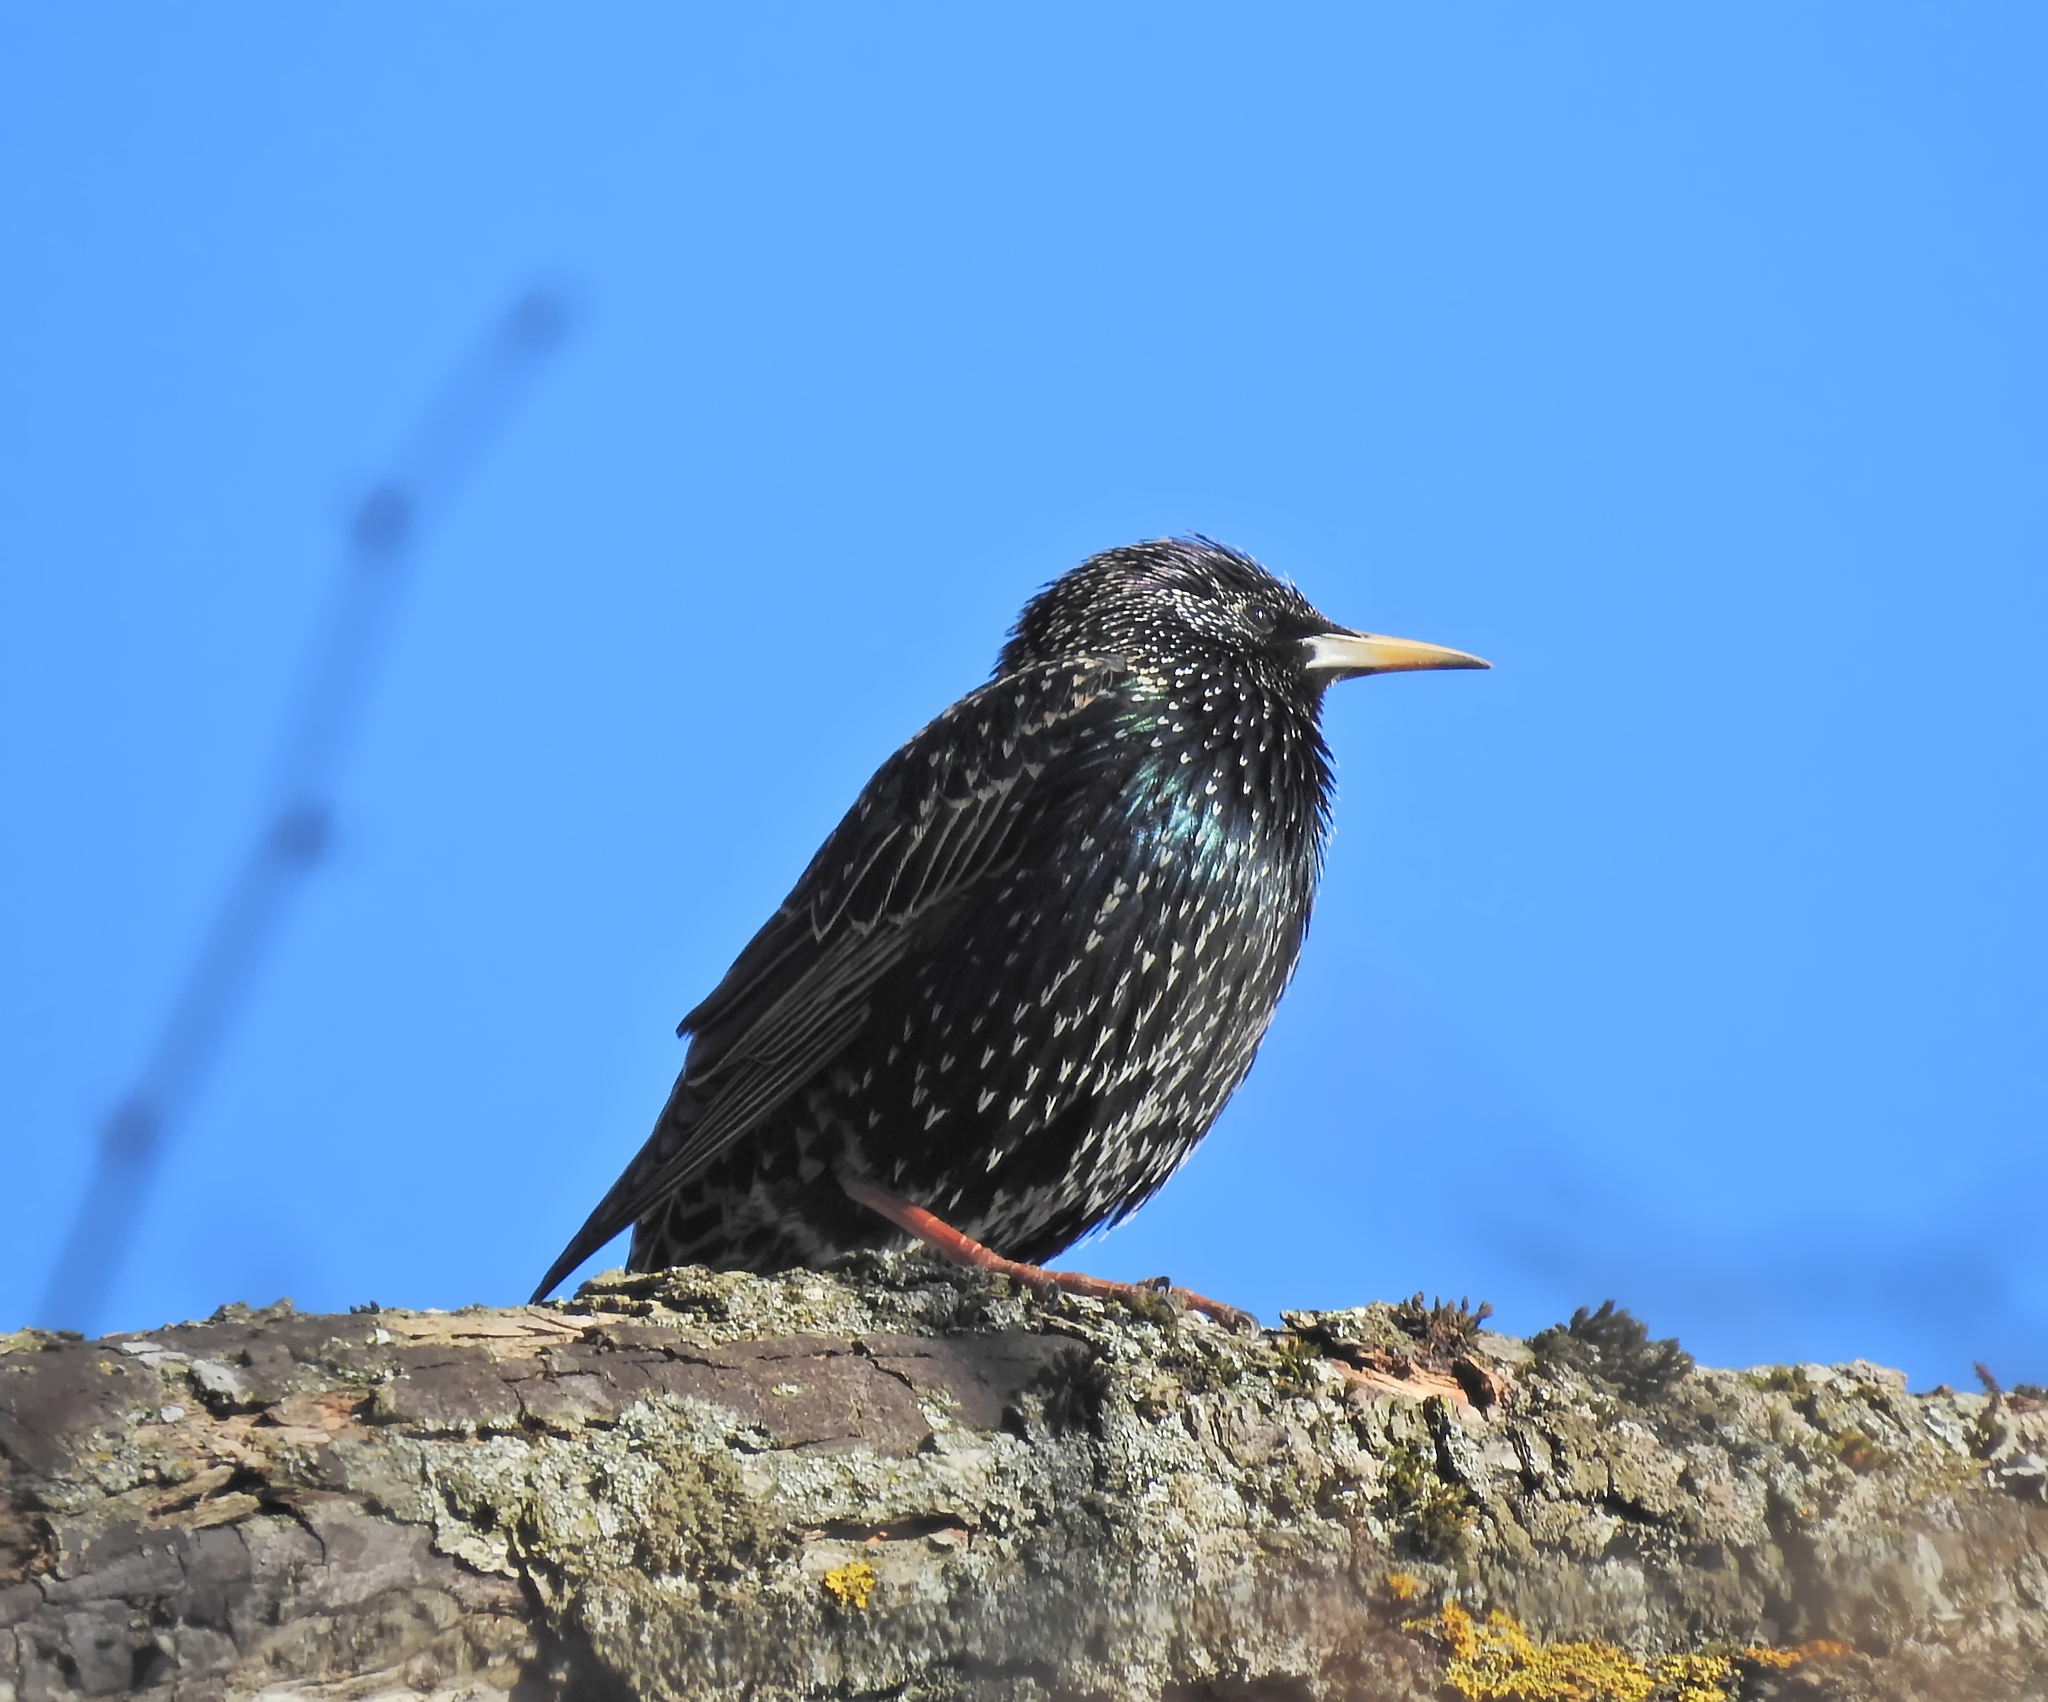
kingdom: Animalia
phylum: Chordata
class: Aves
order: Passeriformes
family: Sturnidae
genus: Sturnus
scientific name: Sturnus vulgaris
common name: Common starling
